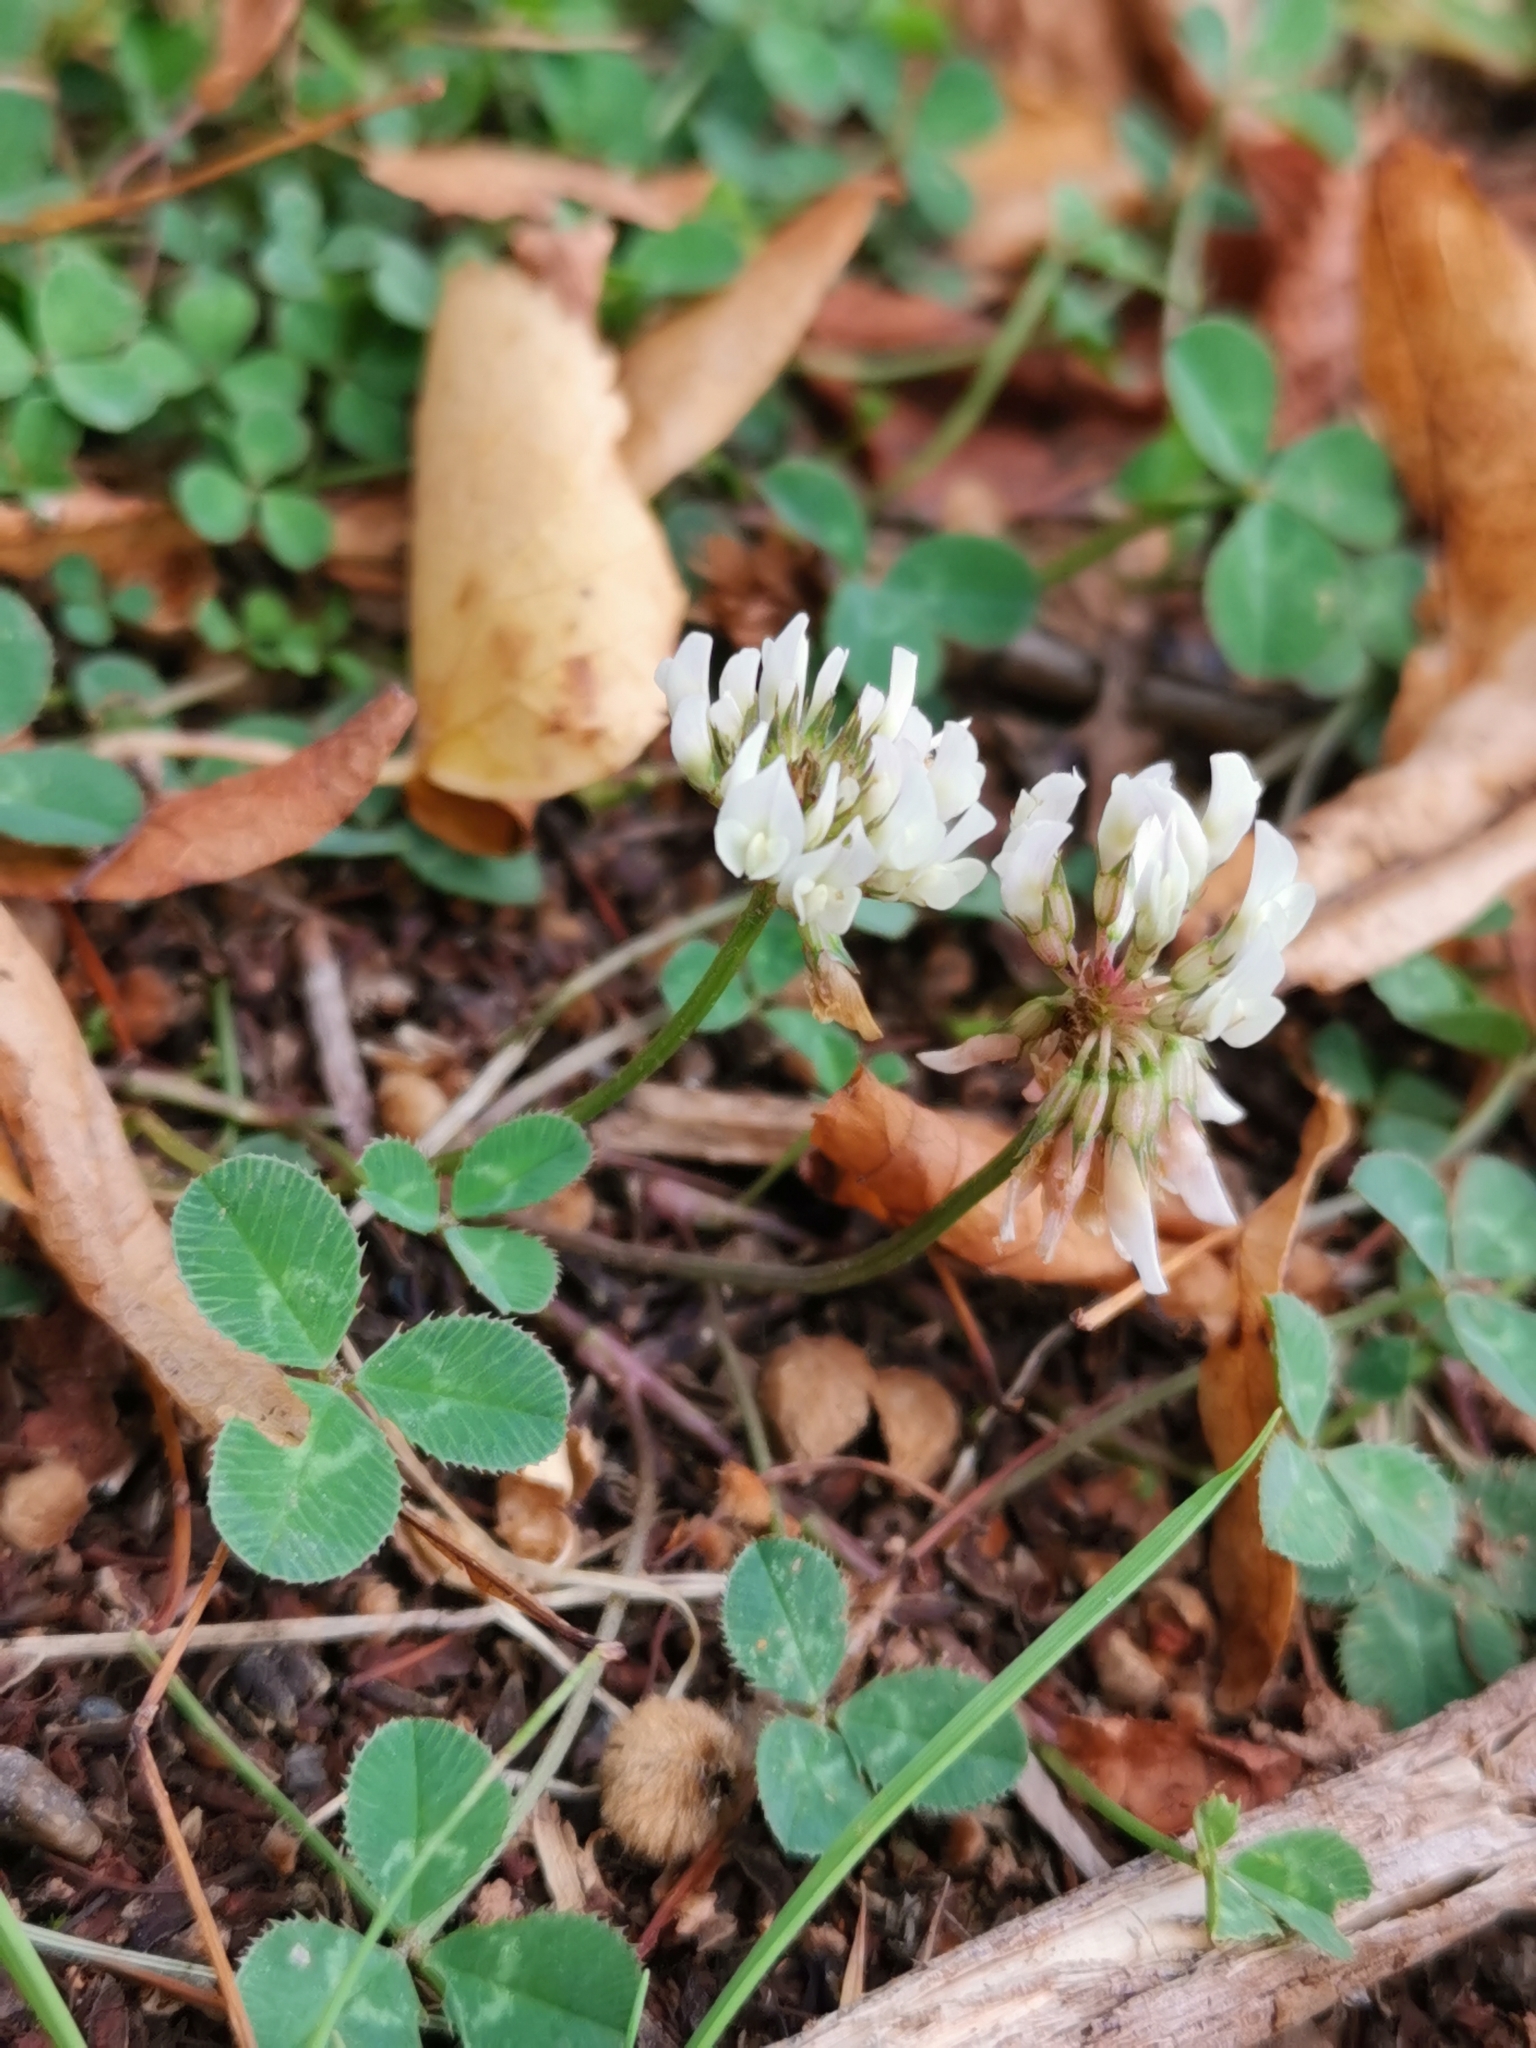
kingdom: Plantae
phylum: Tracheophyta
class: Magnoliopsida
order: Fabales
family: Fabaceae
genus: Trifolium
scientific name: Trifolium repens
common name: White clover
